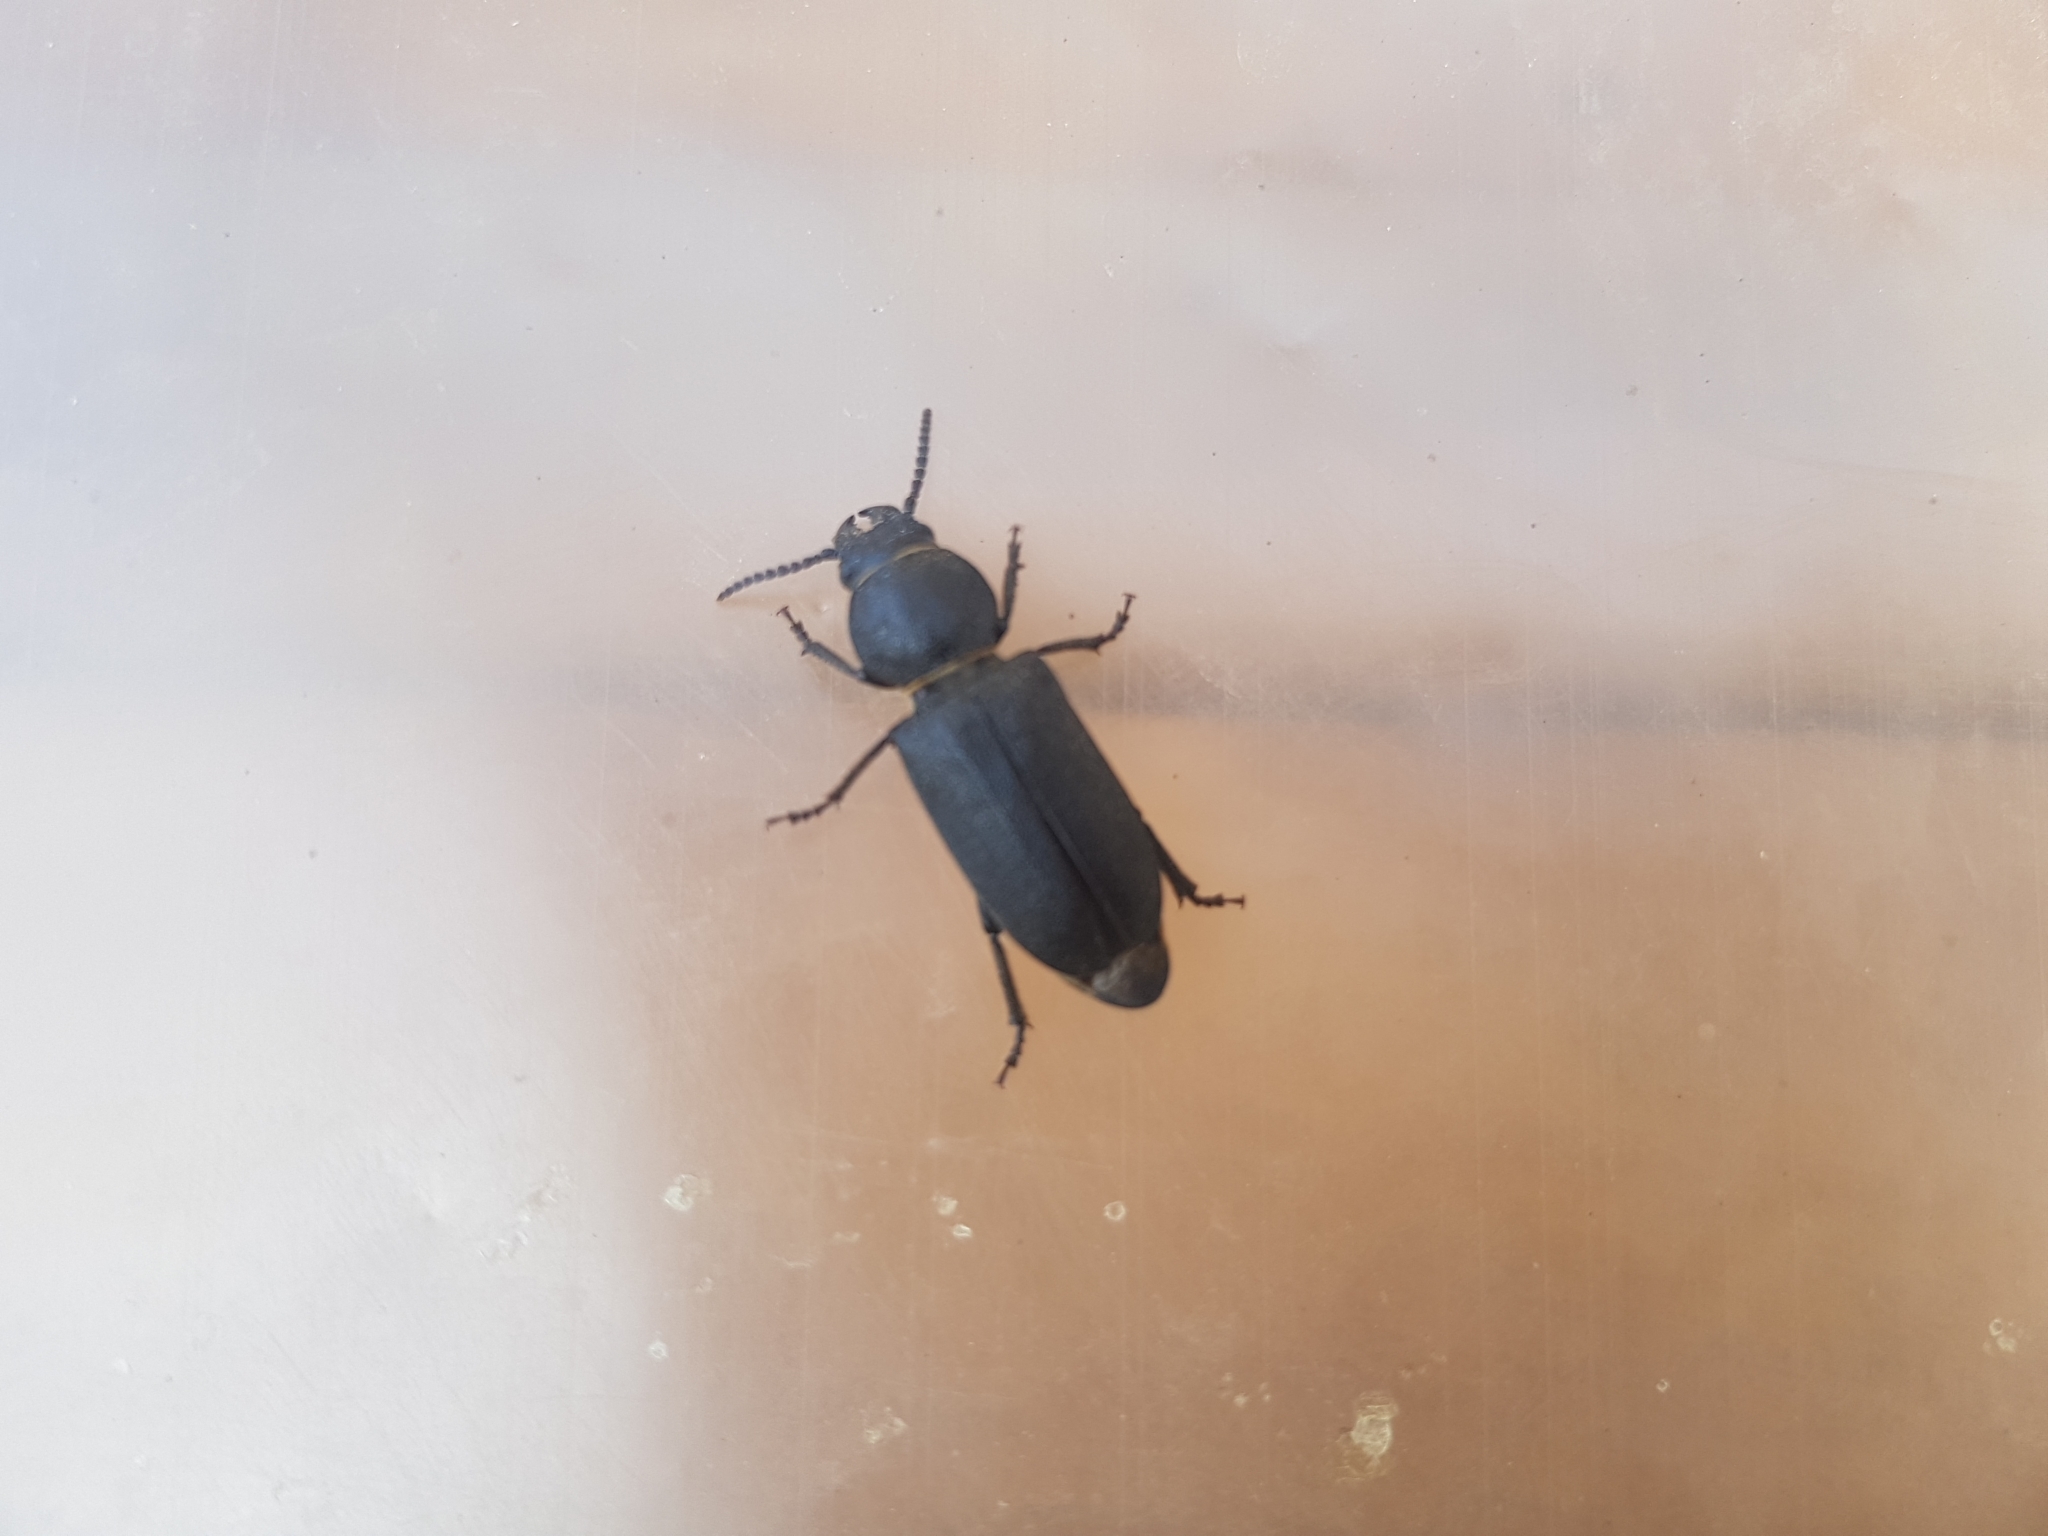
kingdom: Animalia
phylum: Arthropoda
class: Insecta
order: Coleoptera
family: Cerambycidae
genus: Spondylis
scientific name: Spondylis buprestoides
